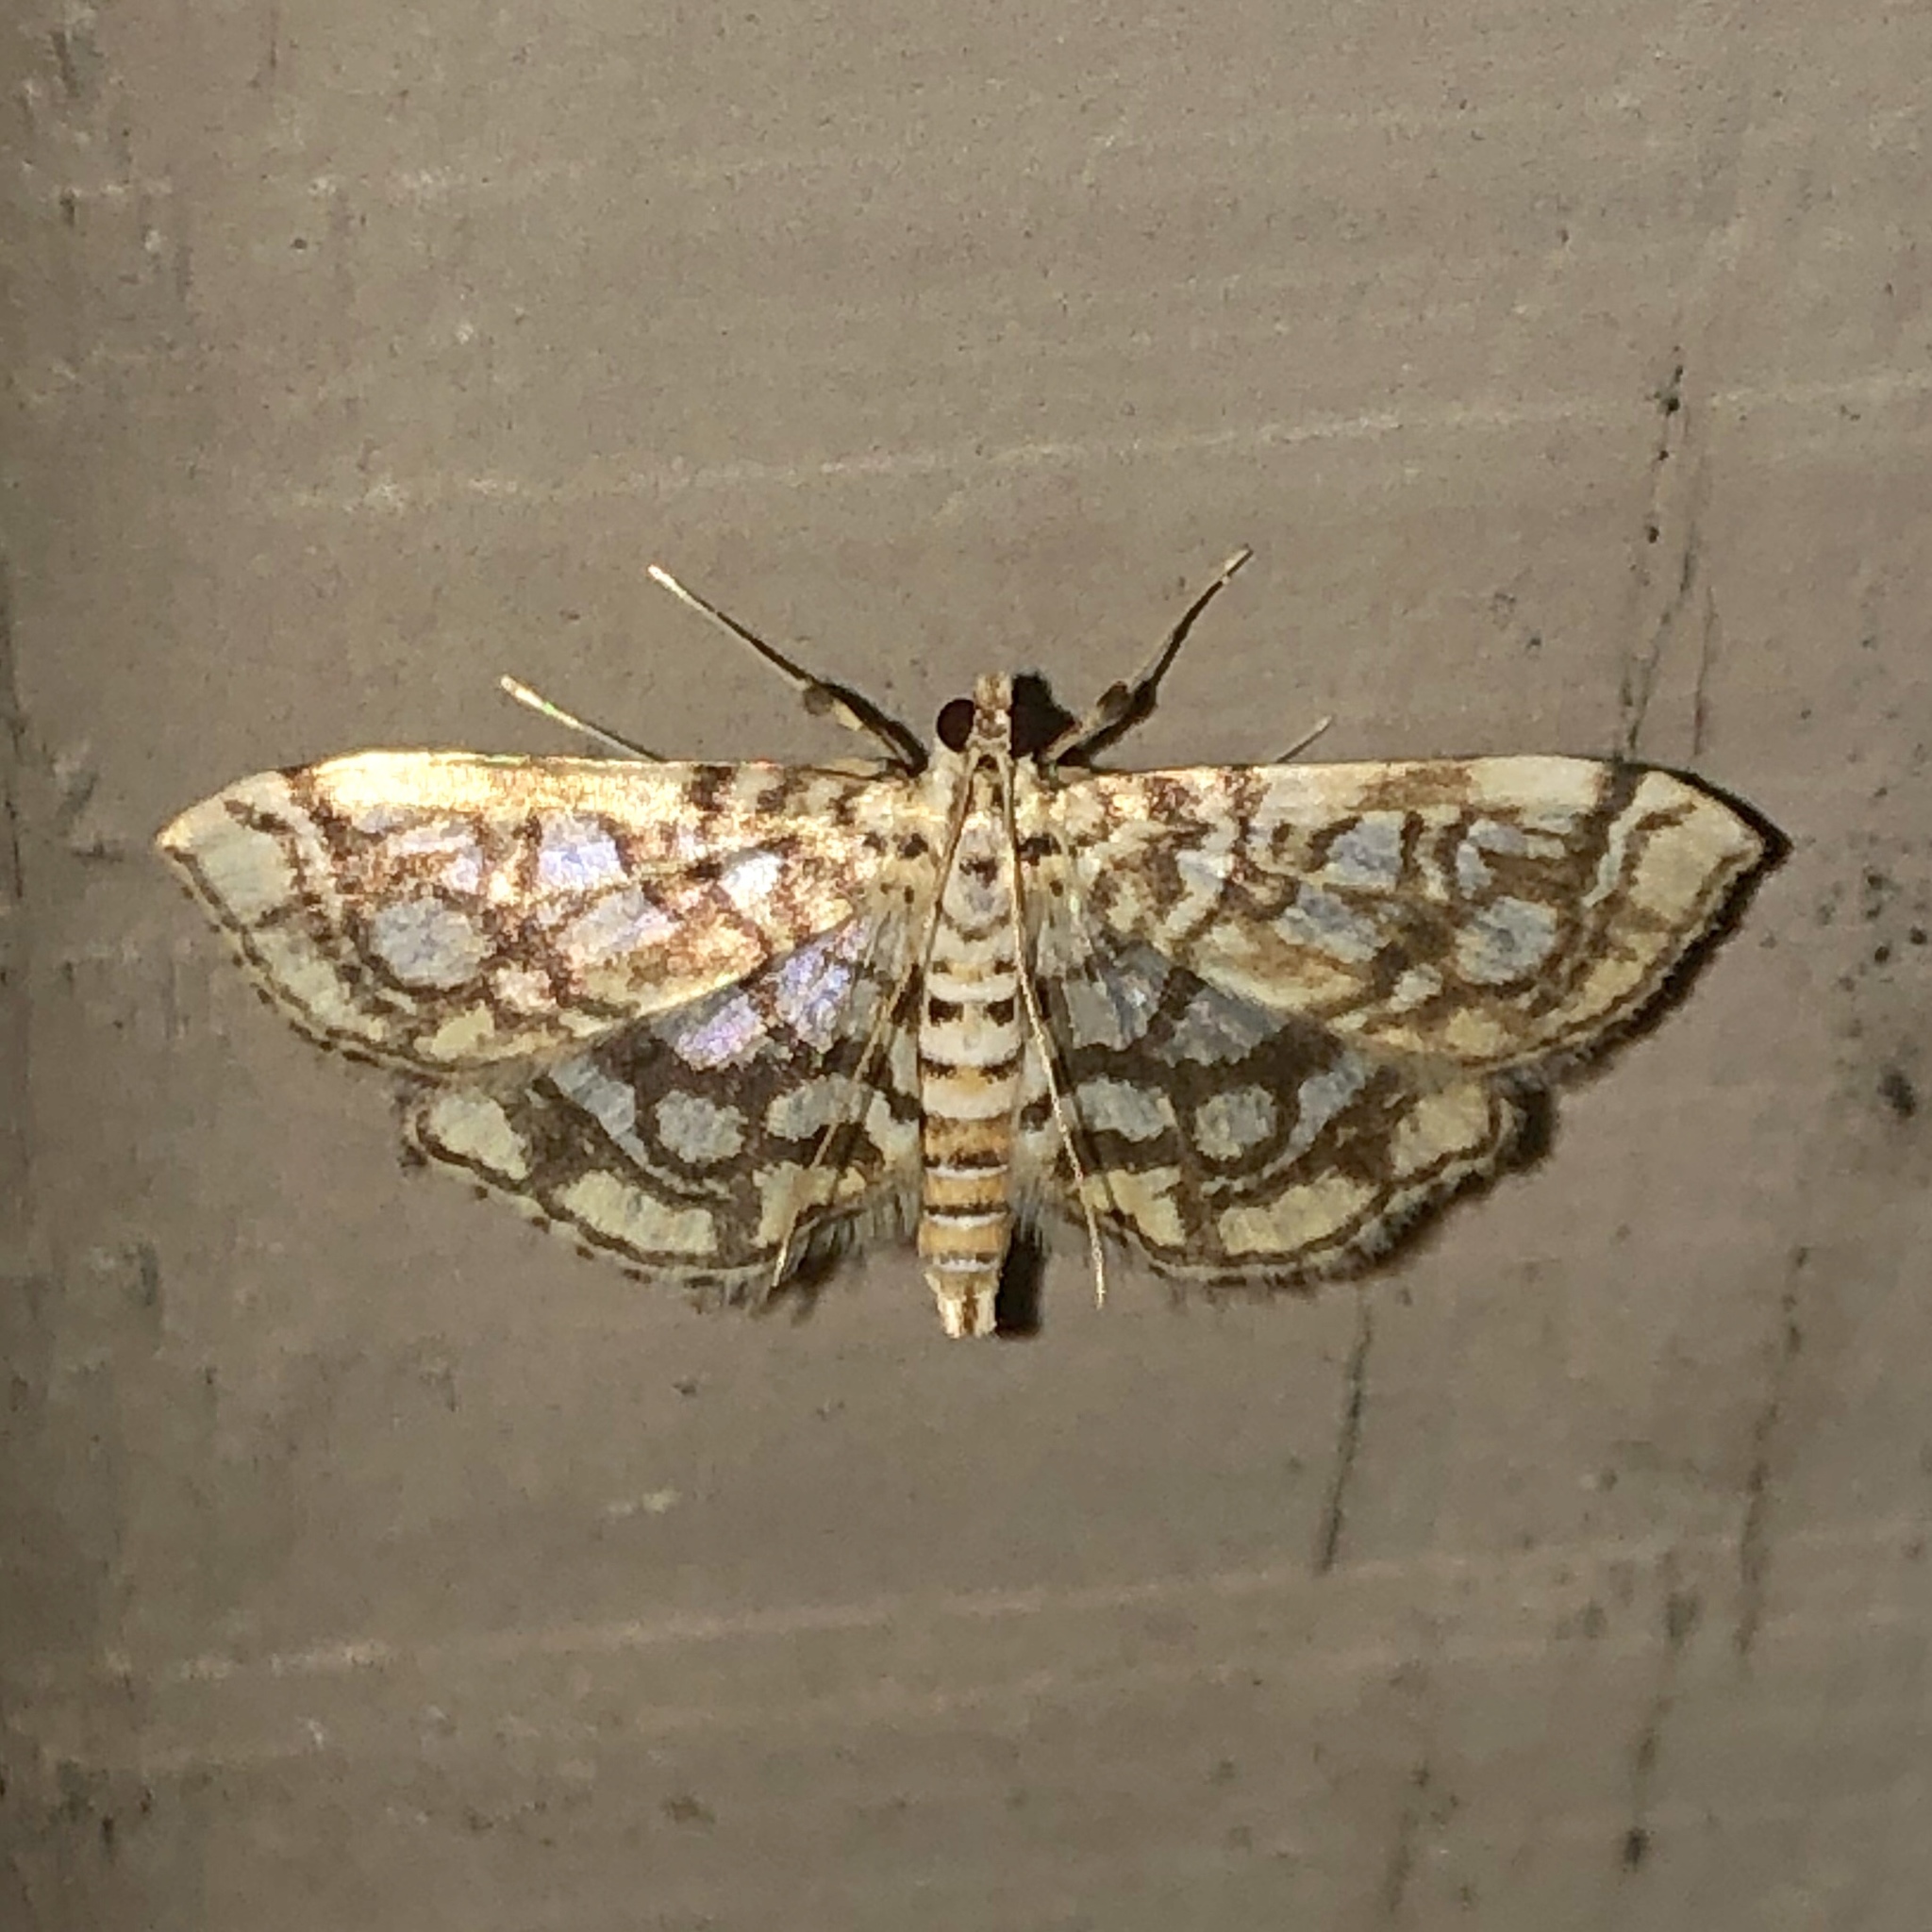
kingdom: Animalia
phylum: Arthropoda
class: Insecta
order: Lepidoptera
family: Crambidae
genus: Lygropia
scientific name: Lygropia rivulalis
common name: Bog lygropia moth
